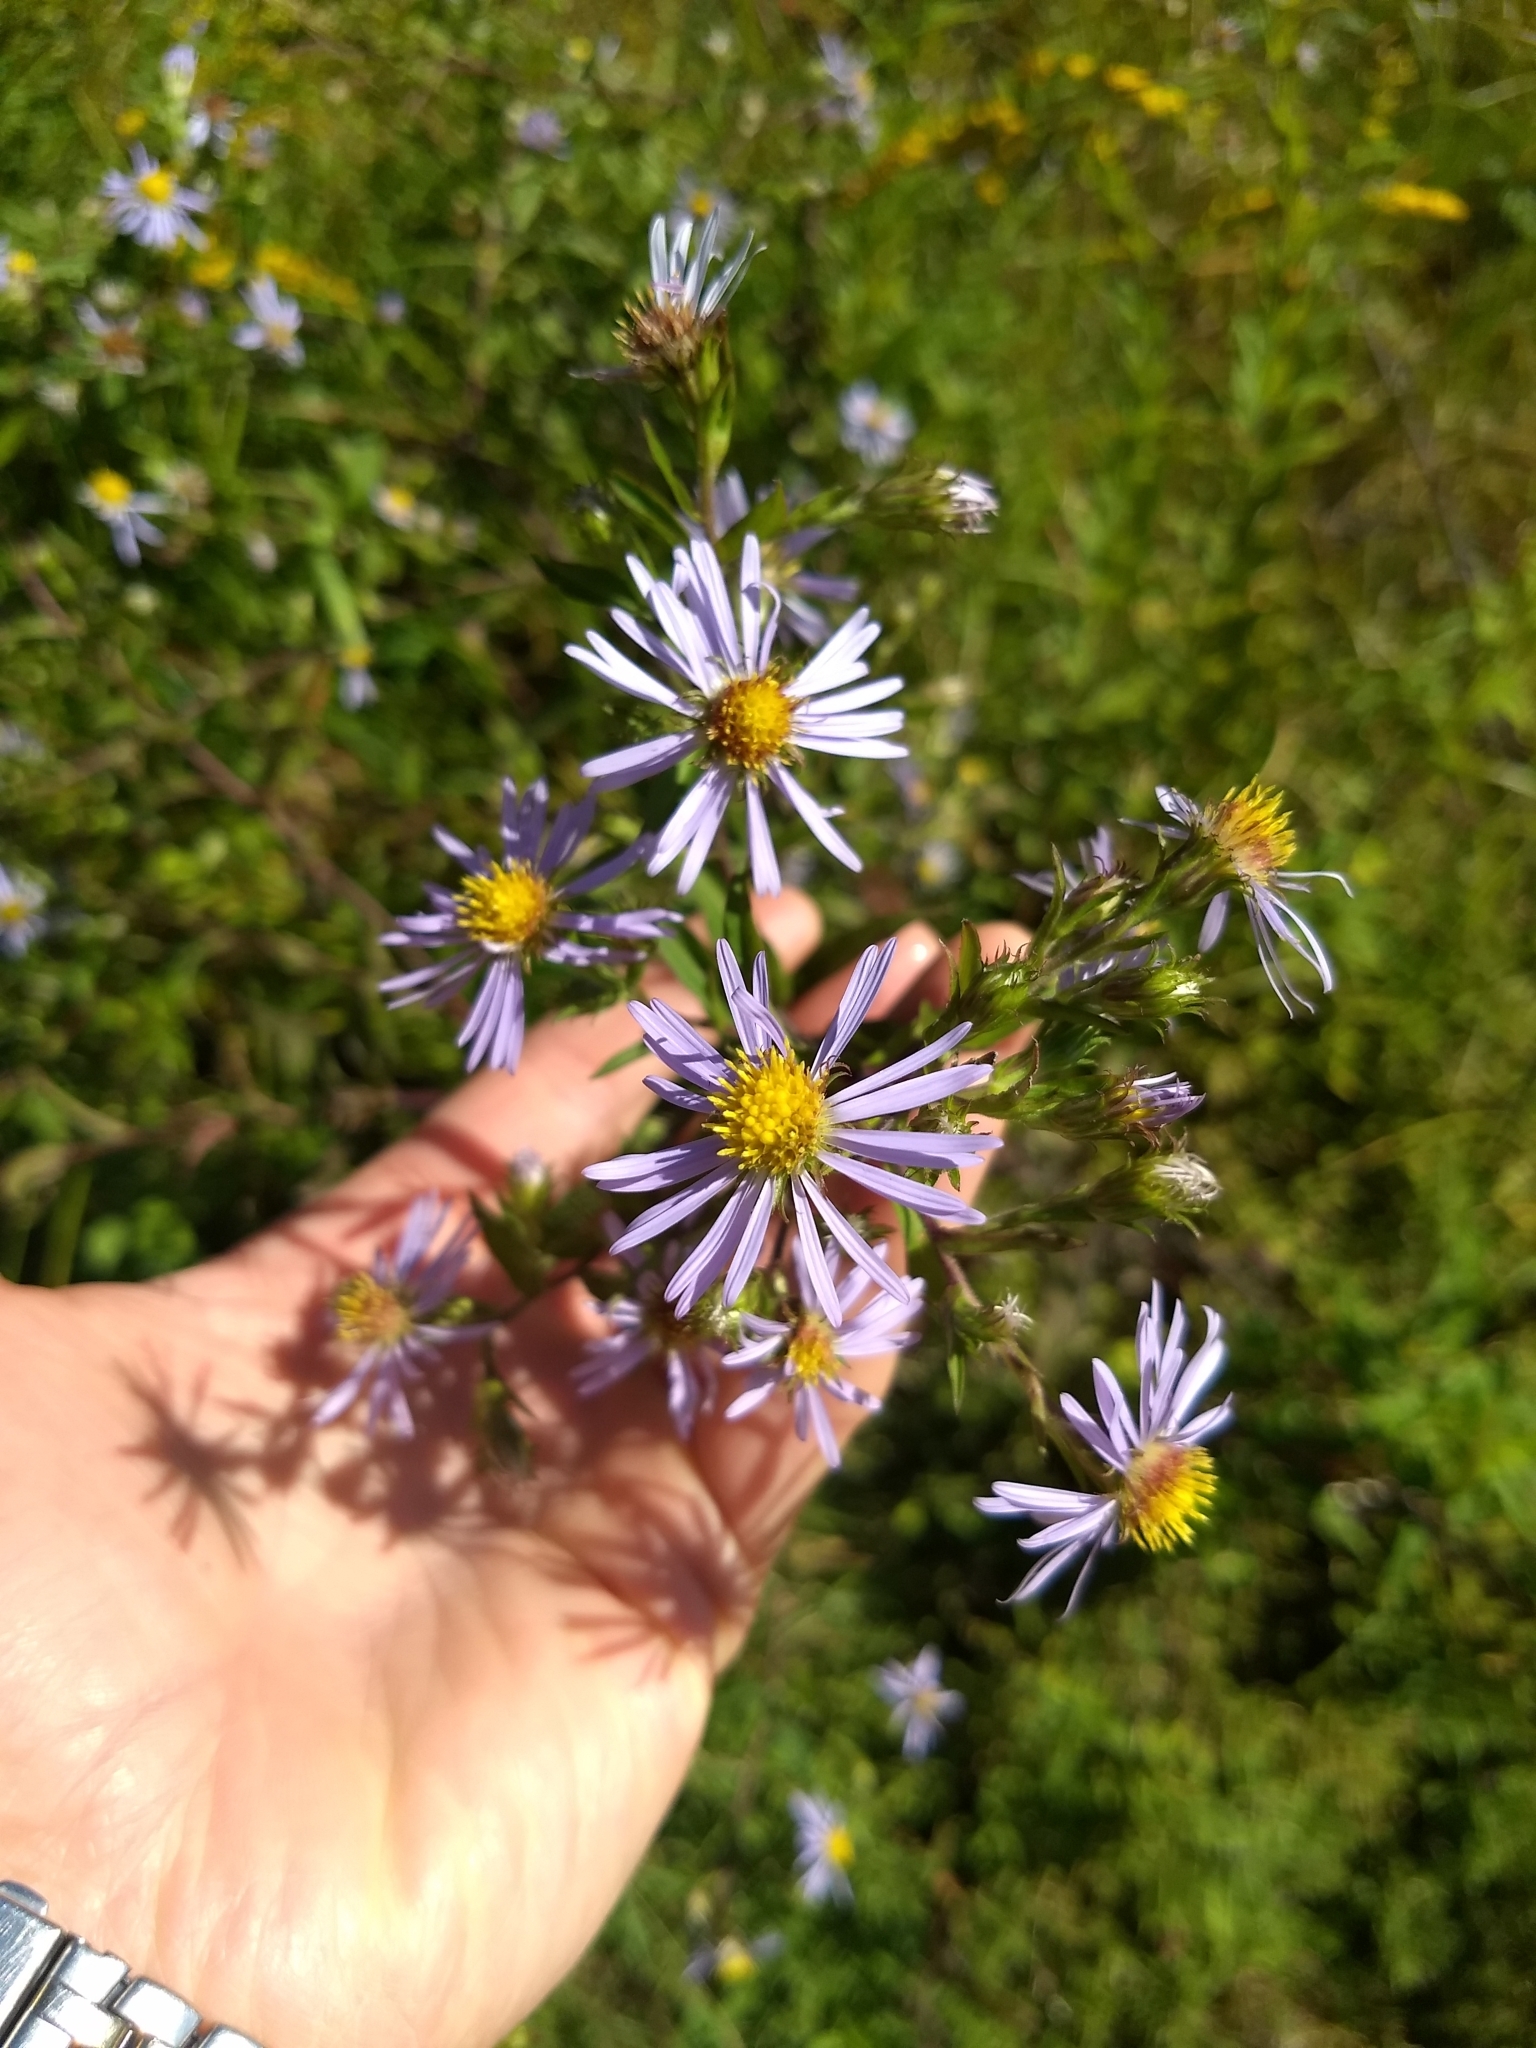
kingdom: Plantae
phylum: Tracheophyta
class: Magnoliopsida
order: Asterales
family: Asteraceae
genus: Symphyotrichum
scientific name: Symphyotrichum puniceum
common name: Bog aster
